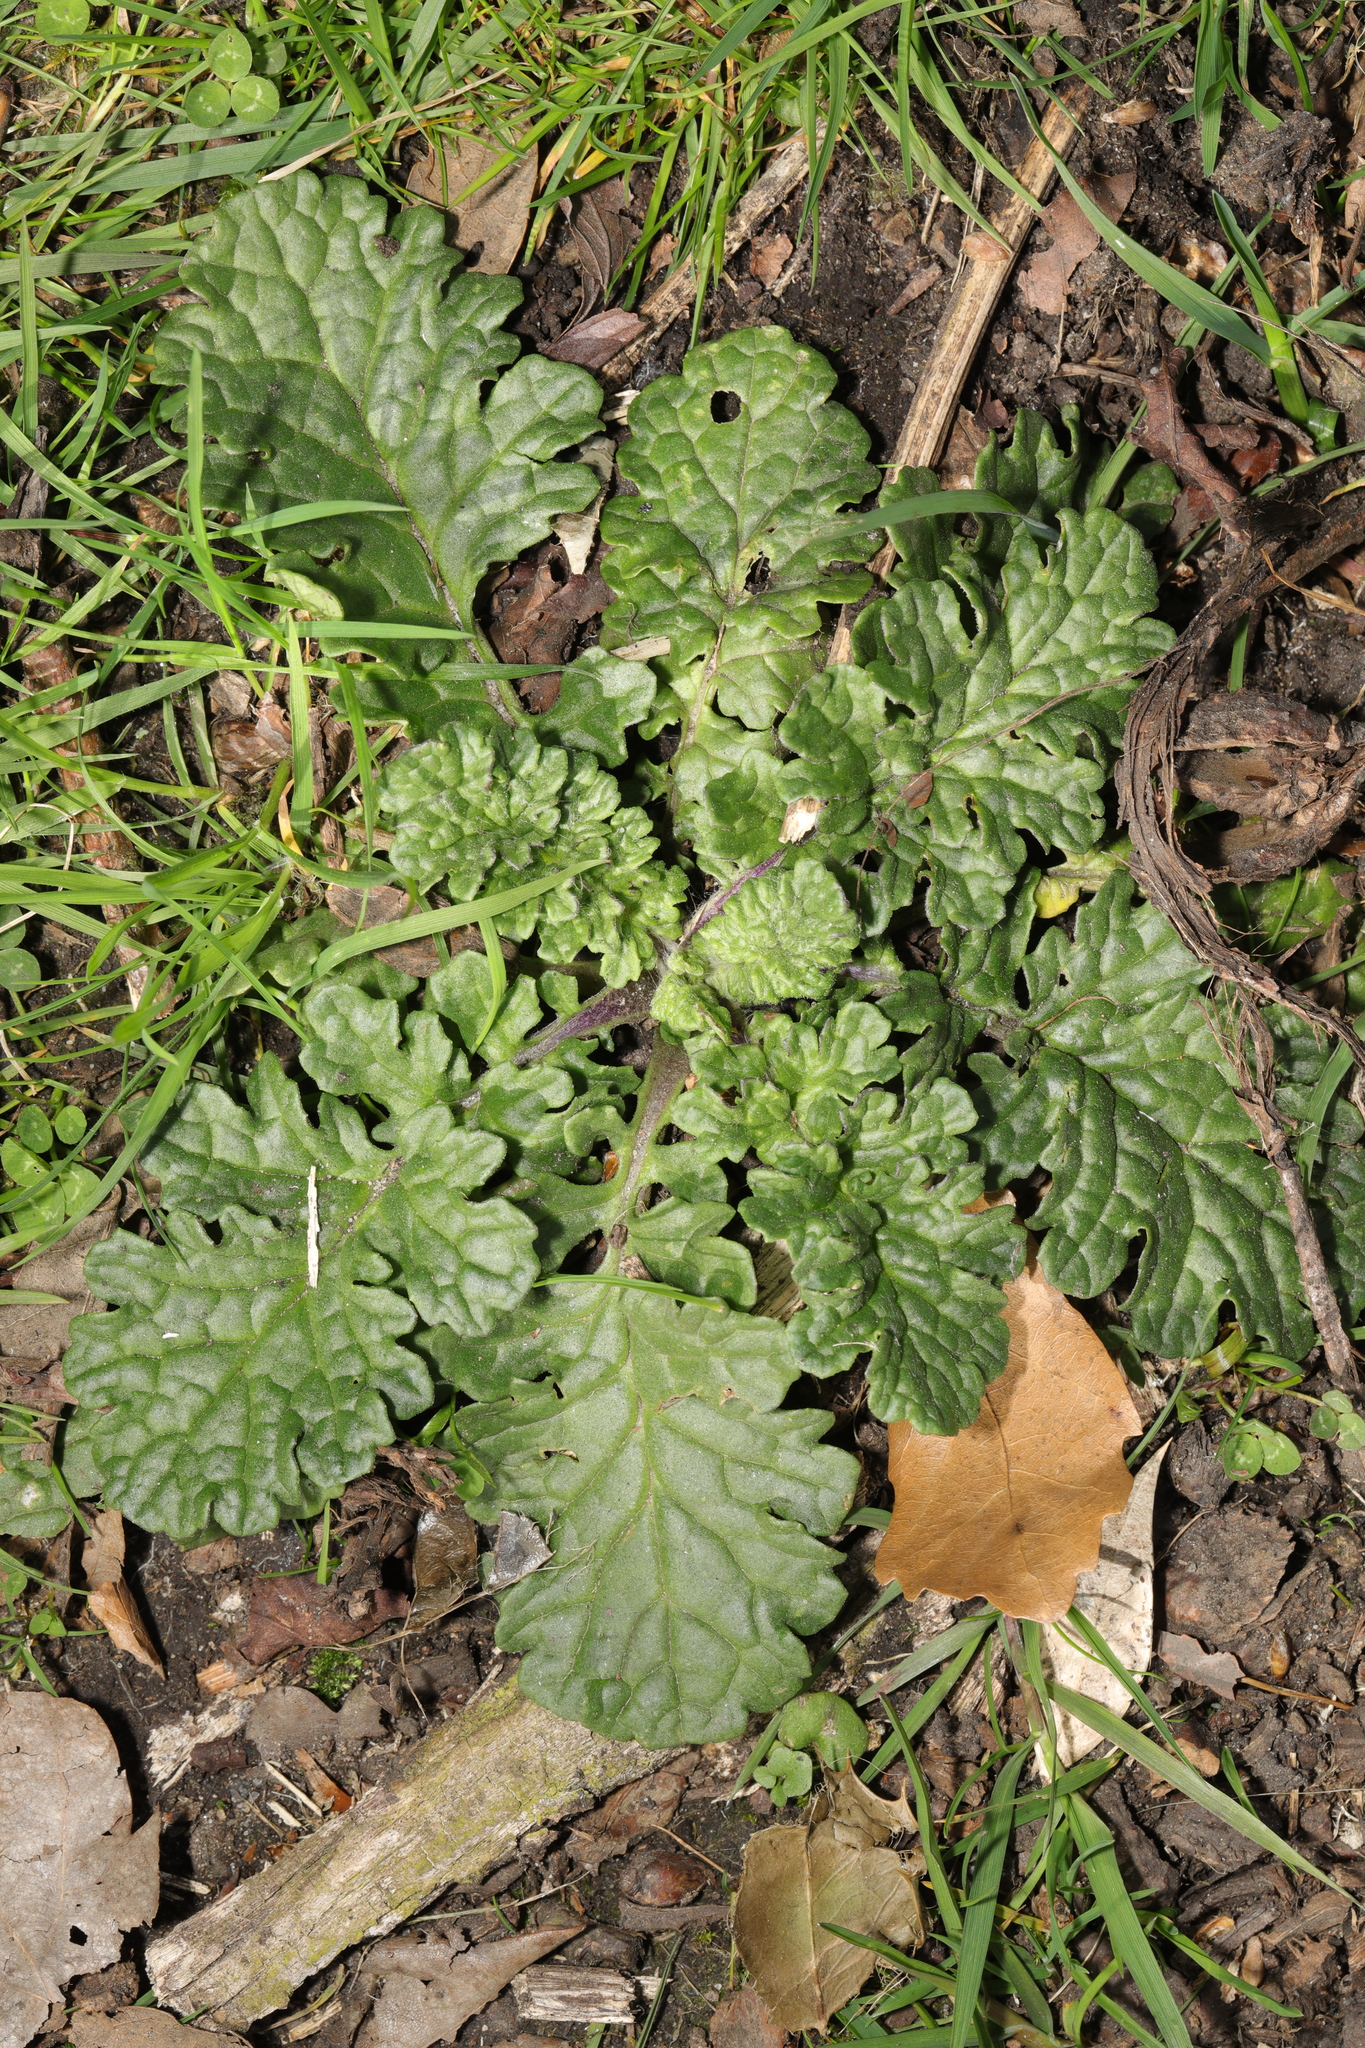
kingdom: Plantae
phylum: Tracheophyta
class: Magnoliopsida
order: Asterales
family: Asteraceae
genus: Jacobaea
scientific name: Jacobaea vulgaris
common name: Stinking willie
